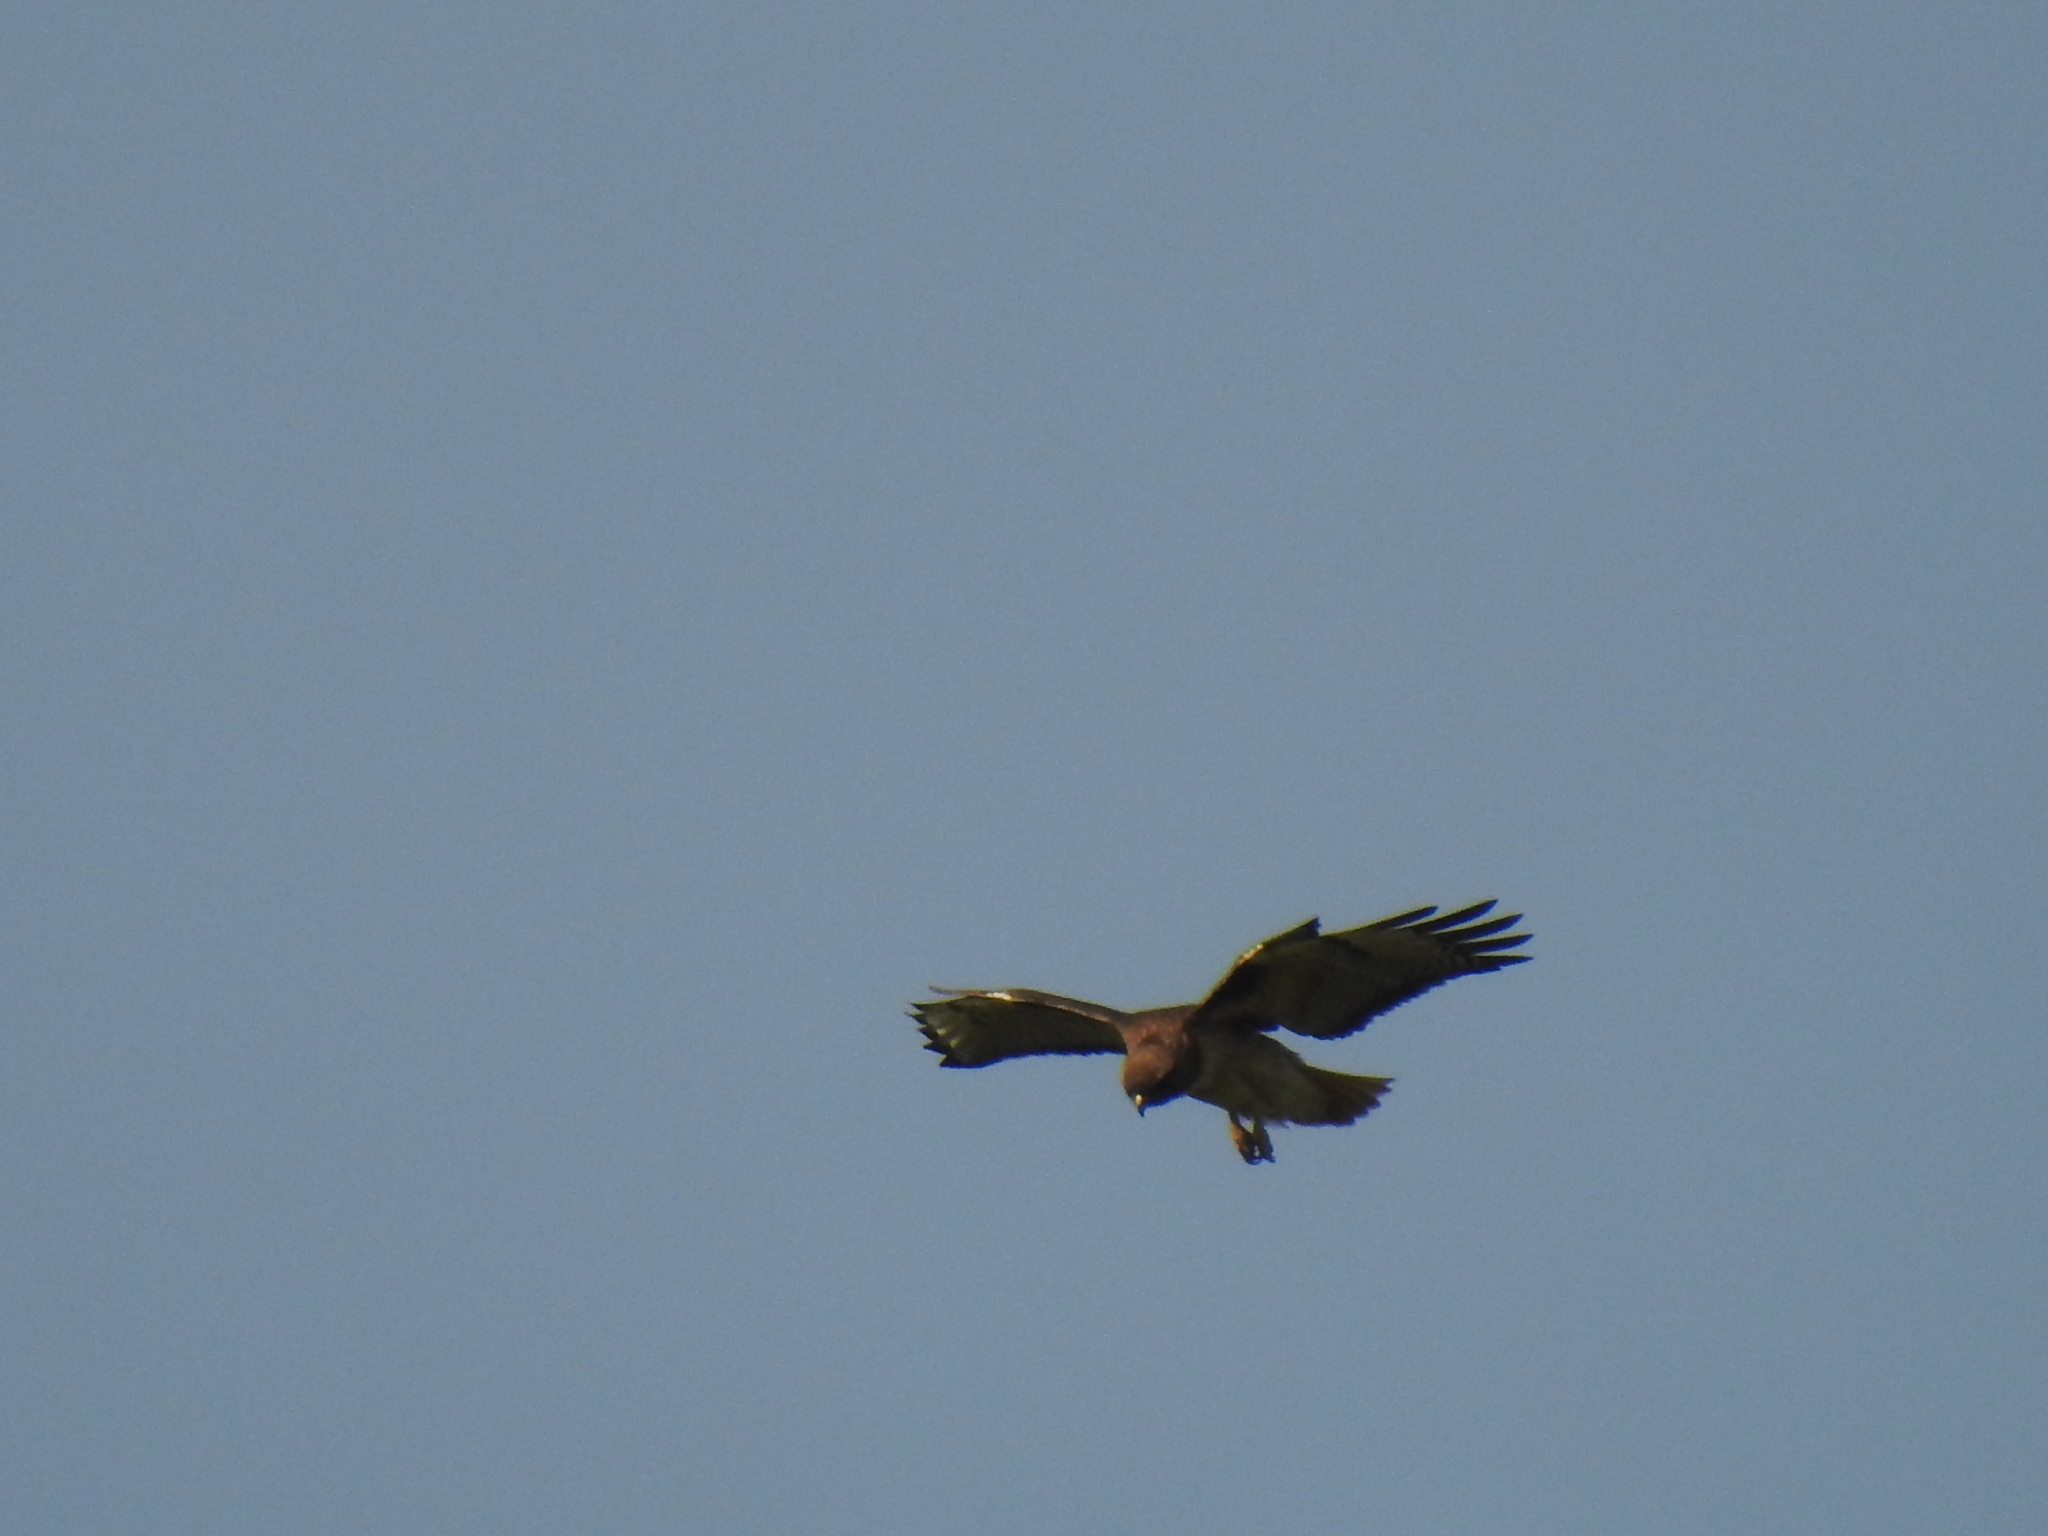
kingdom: Animalia
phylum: Chordata
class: Aves
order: Accipitriformes
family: Accipitridae
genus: Buteo
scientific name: Buteo jamaicensis
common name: Red-tailed hawk
